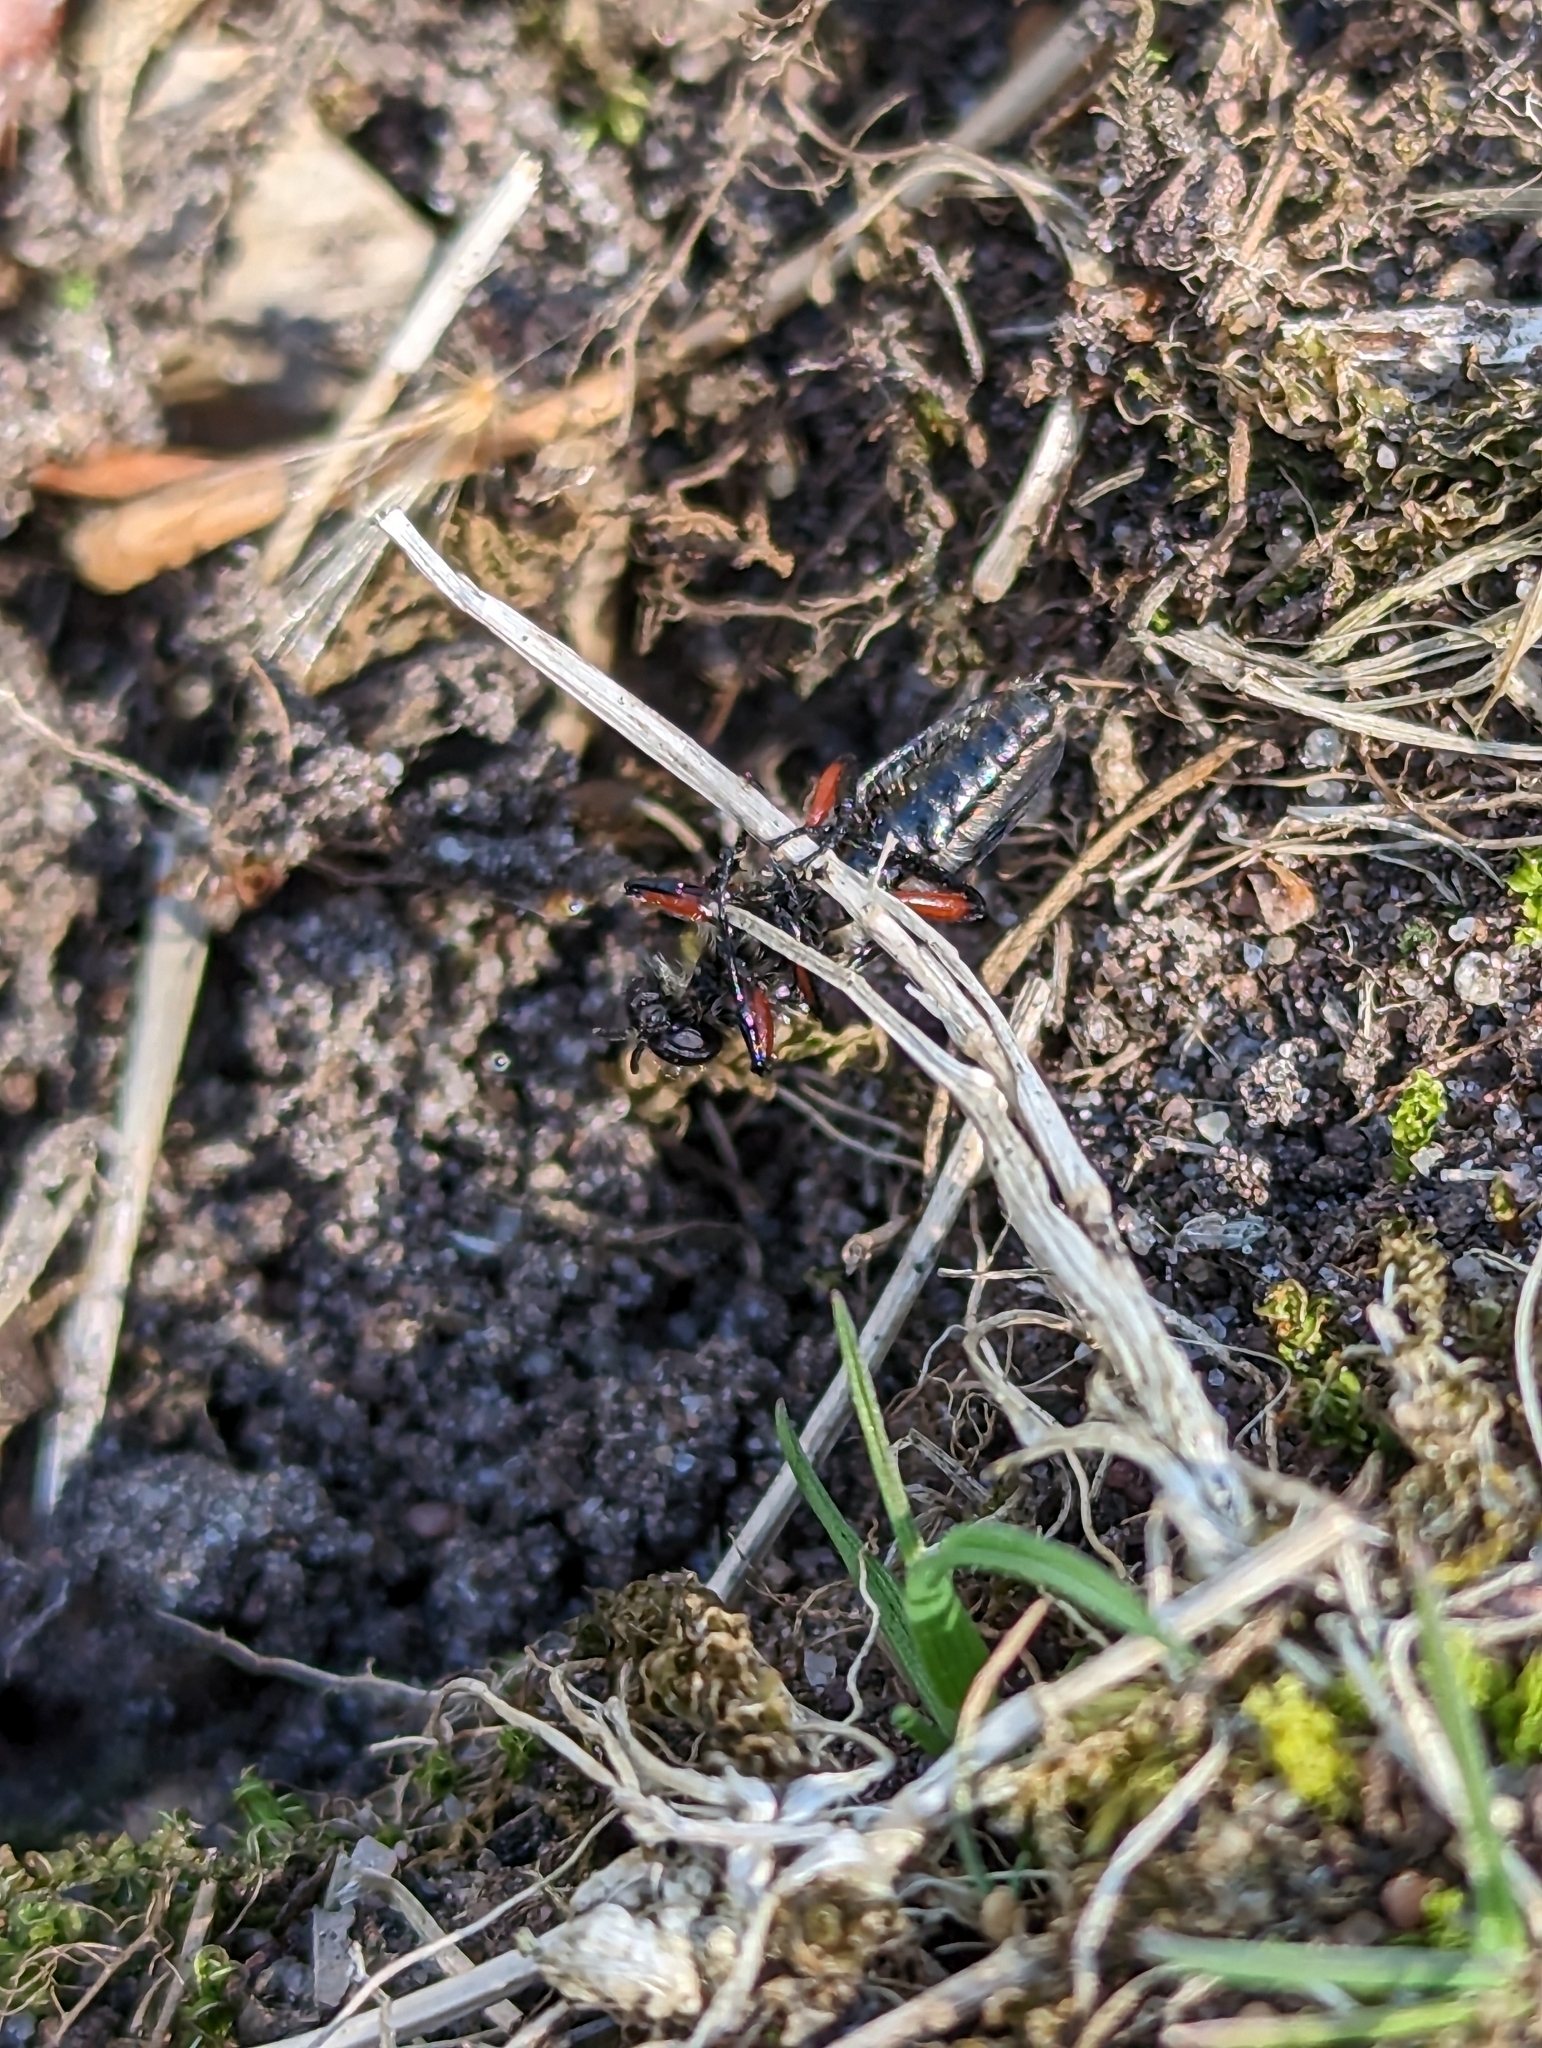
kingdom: Animalia
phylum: Arthropoda
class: Insecta
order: Diptera
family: Bibionidae
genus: Bibio
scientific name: Bibio femoratus
